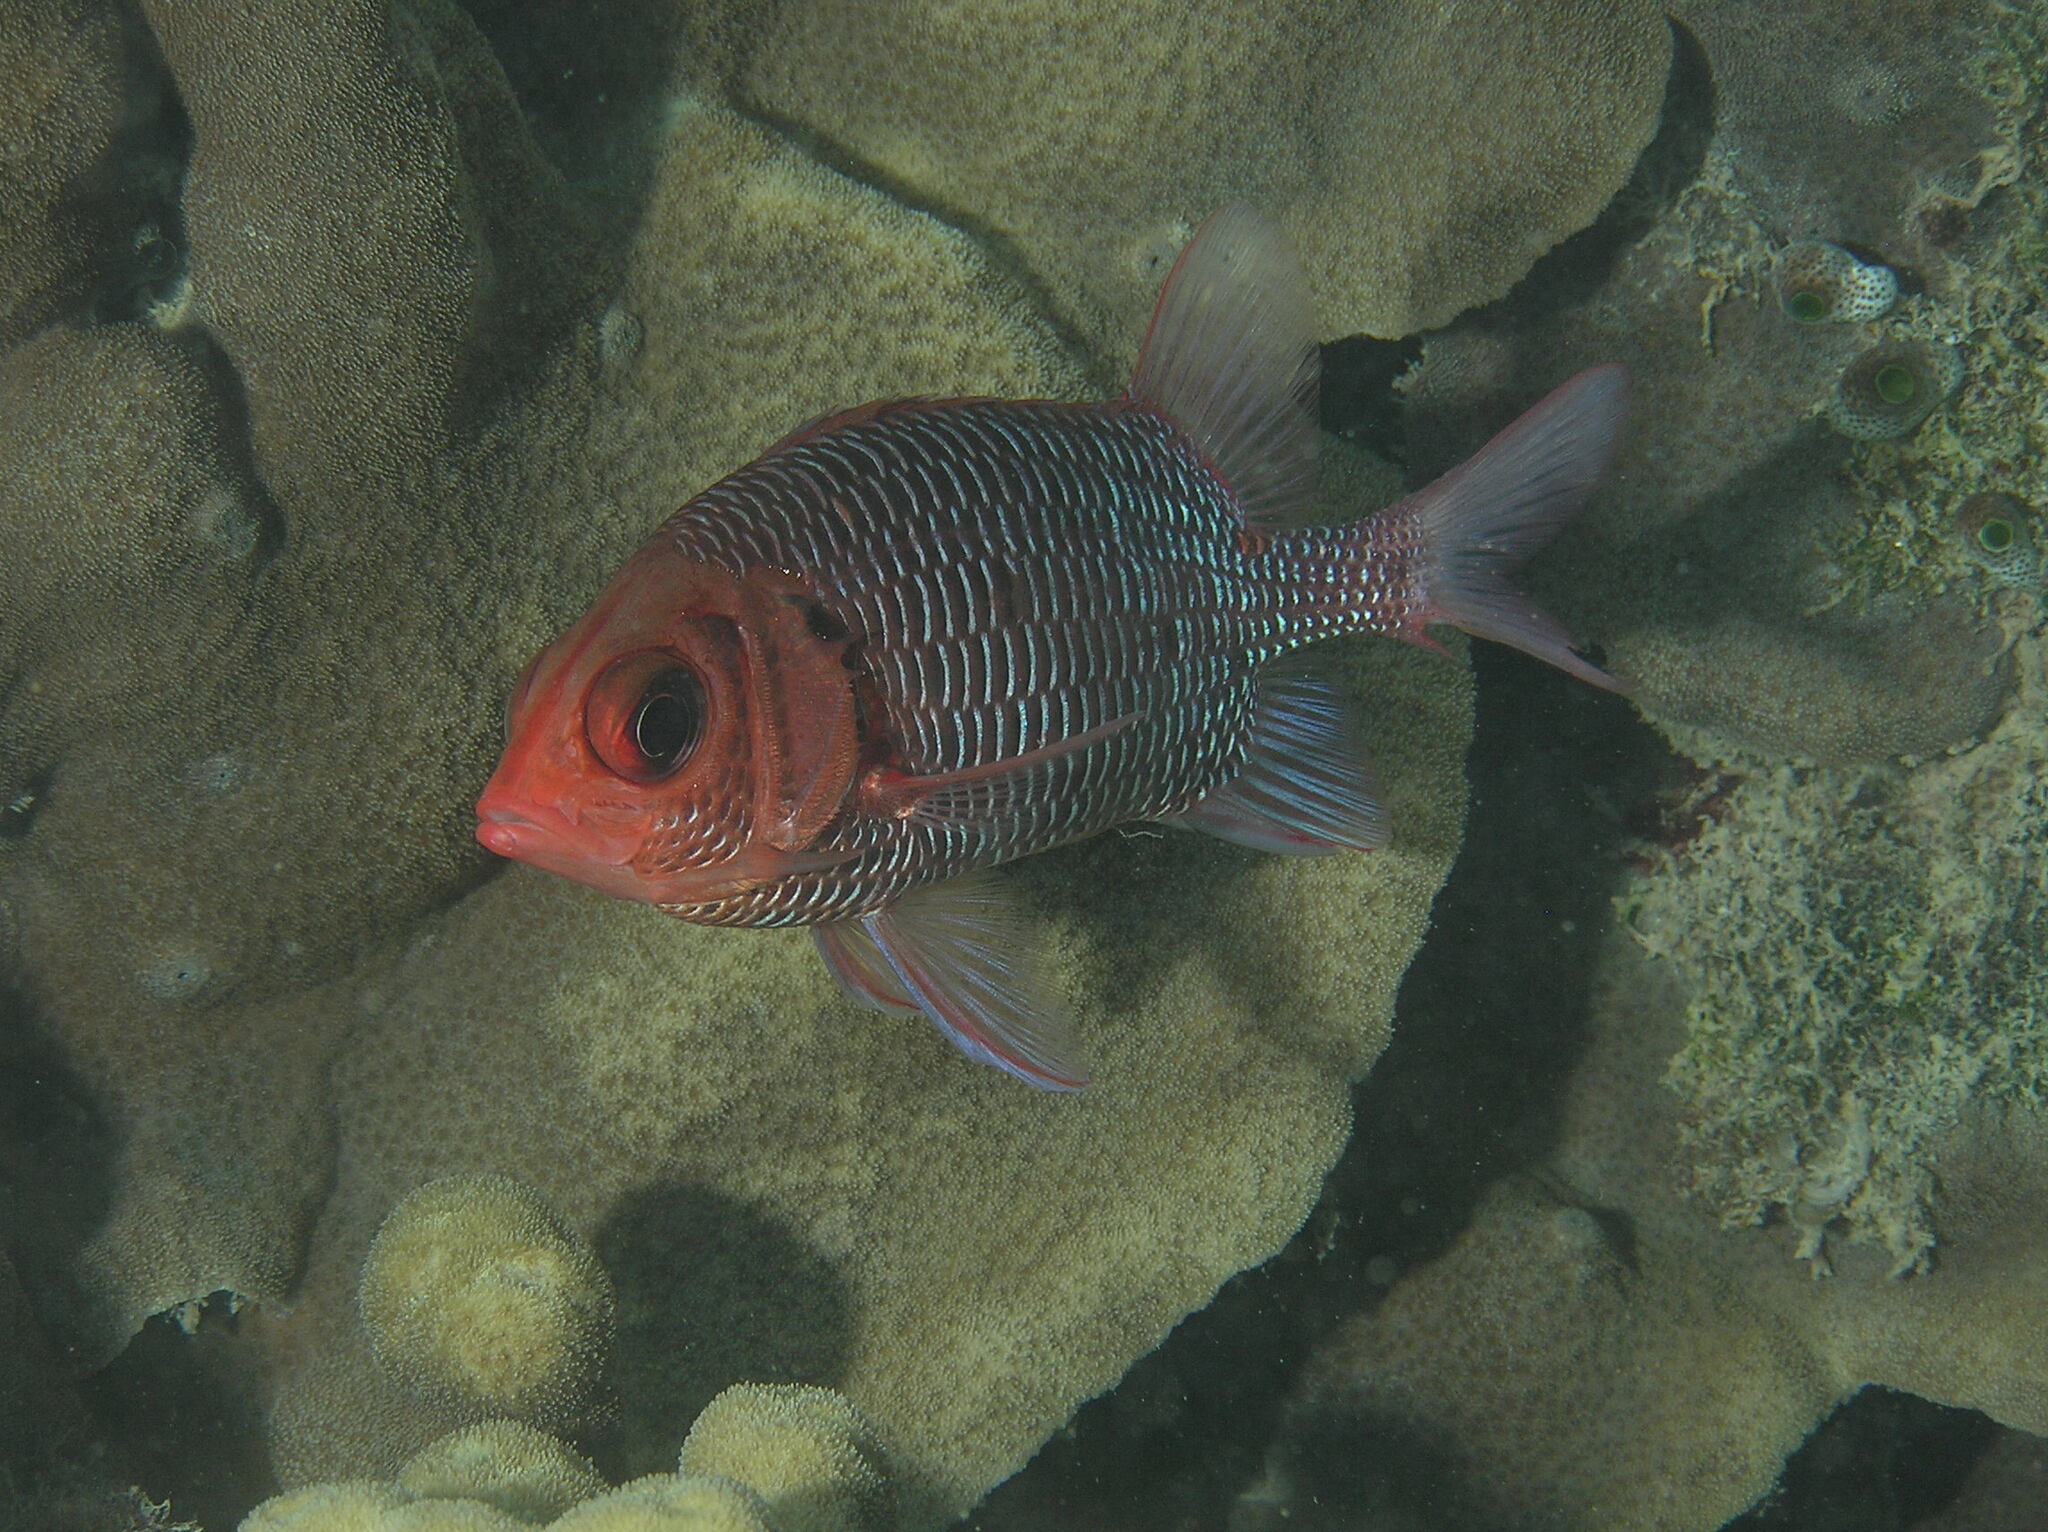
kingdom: Animalia
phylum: Chordata
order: Beryciformes
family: Holocentridae
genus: Sargocentron
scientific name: Sargocentron violaceum
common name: Red-faced squirrelfish
